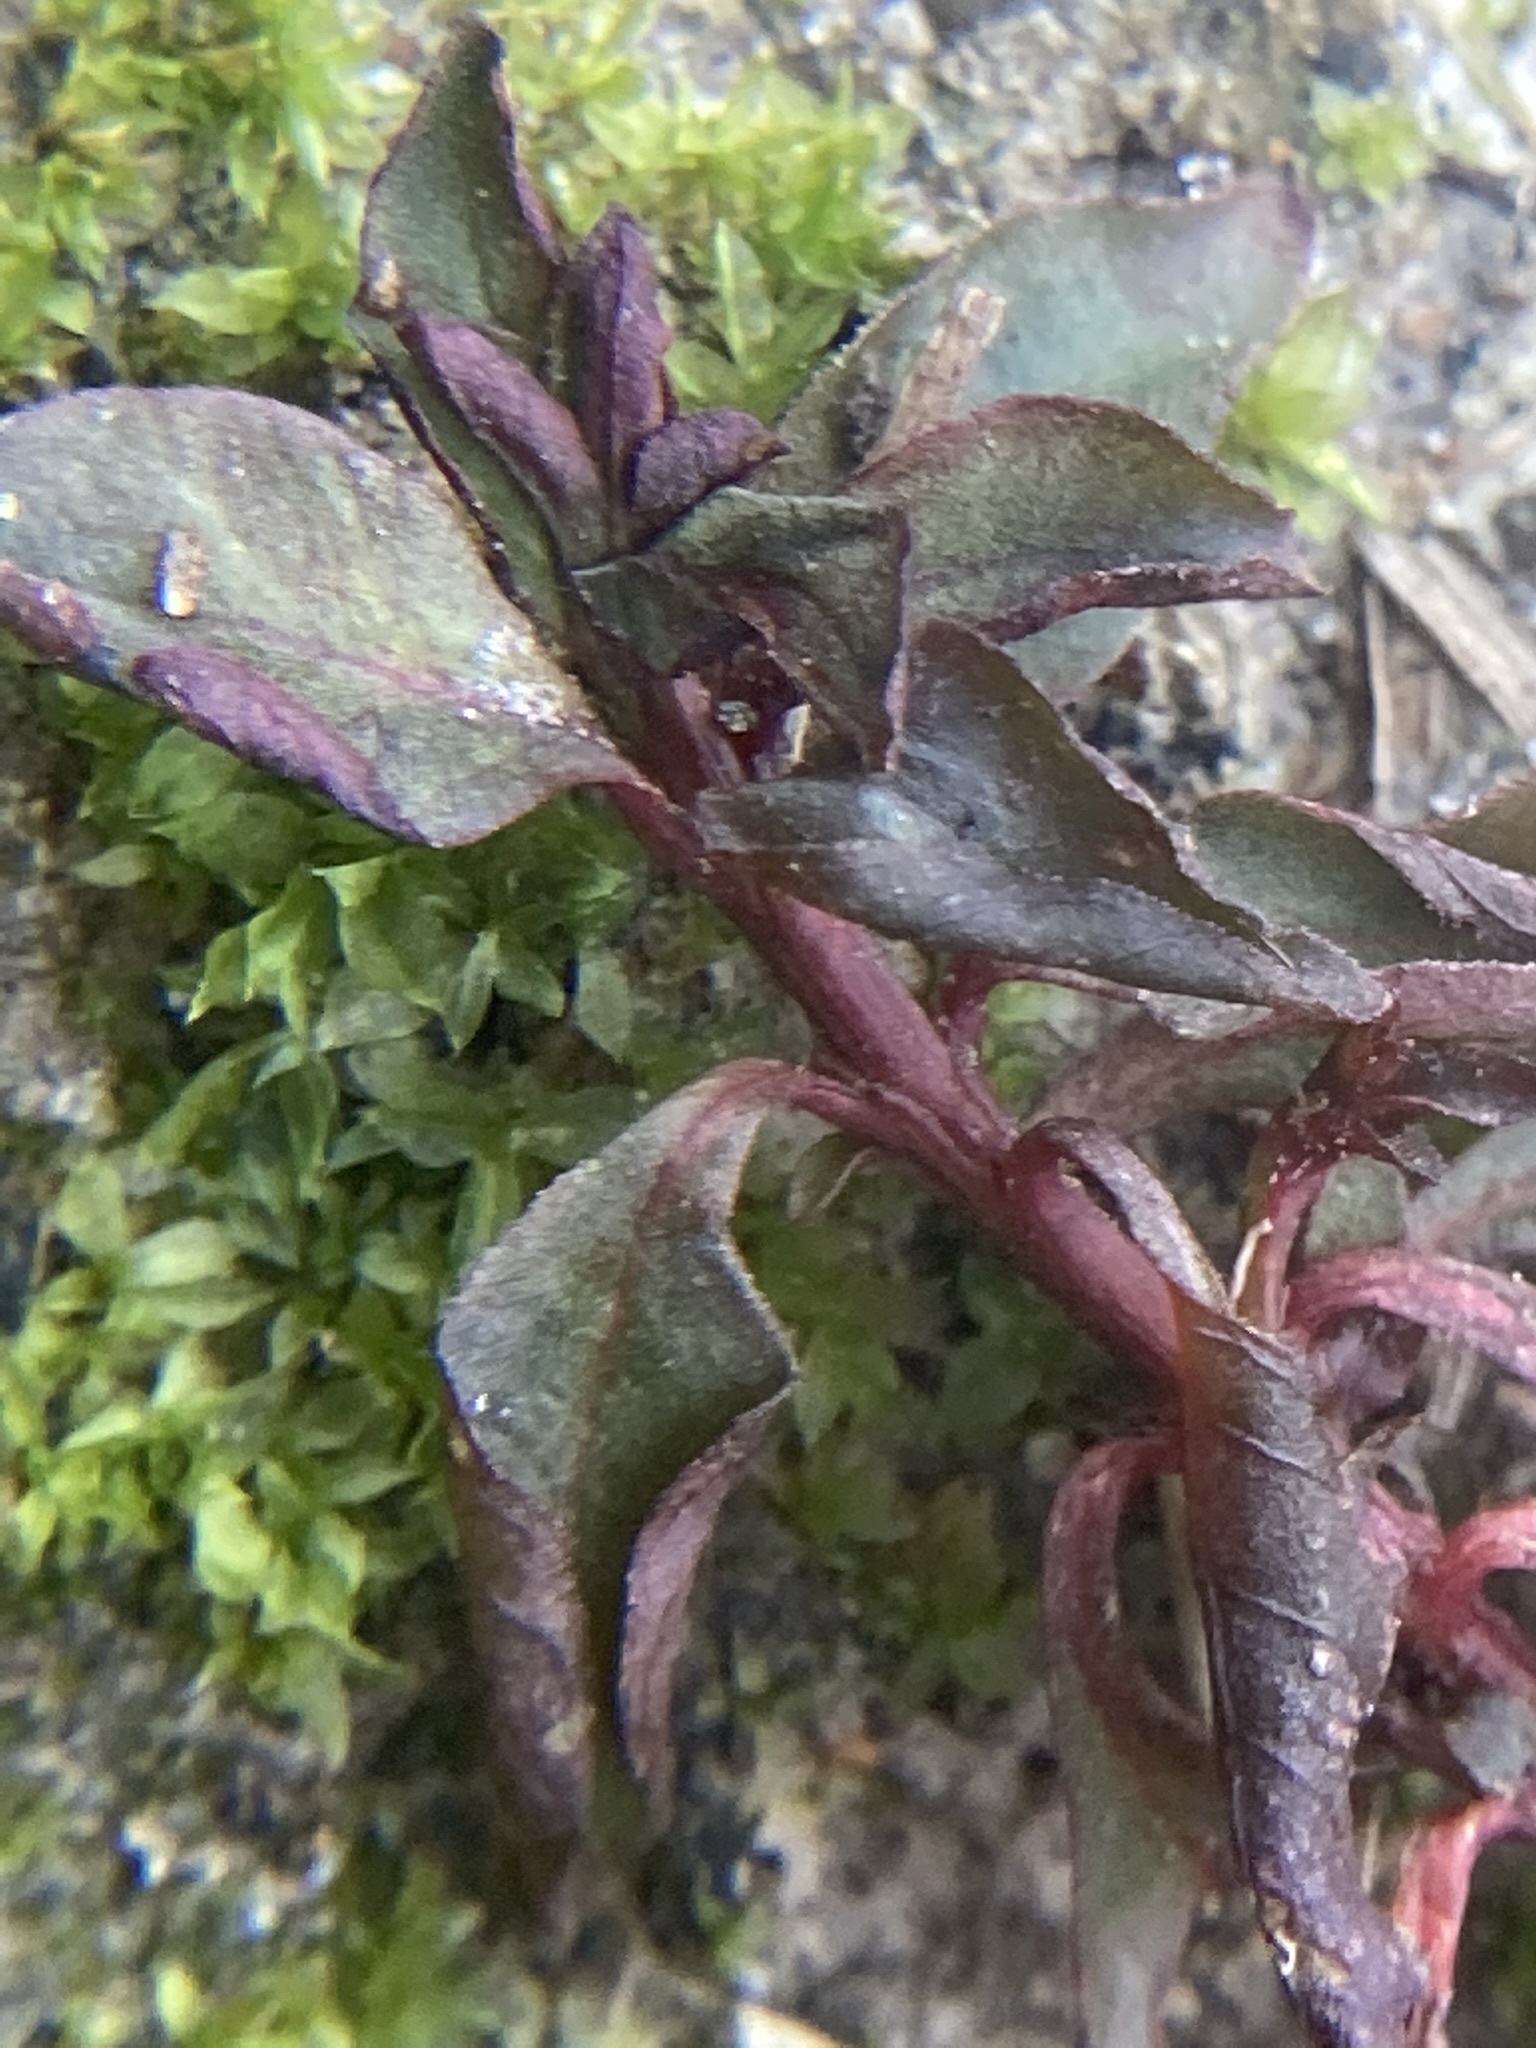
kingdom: Plantae
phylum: Tracheophyta
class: Magnoliopsida
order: Myrtales
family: Onagraceae
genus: Ludwigia
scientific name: Ludwigia palustris
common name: Hampshire-purslane
